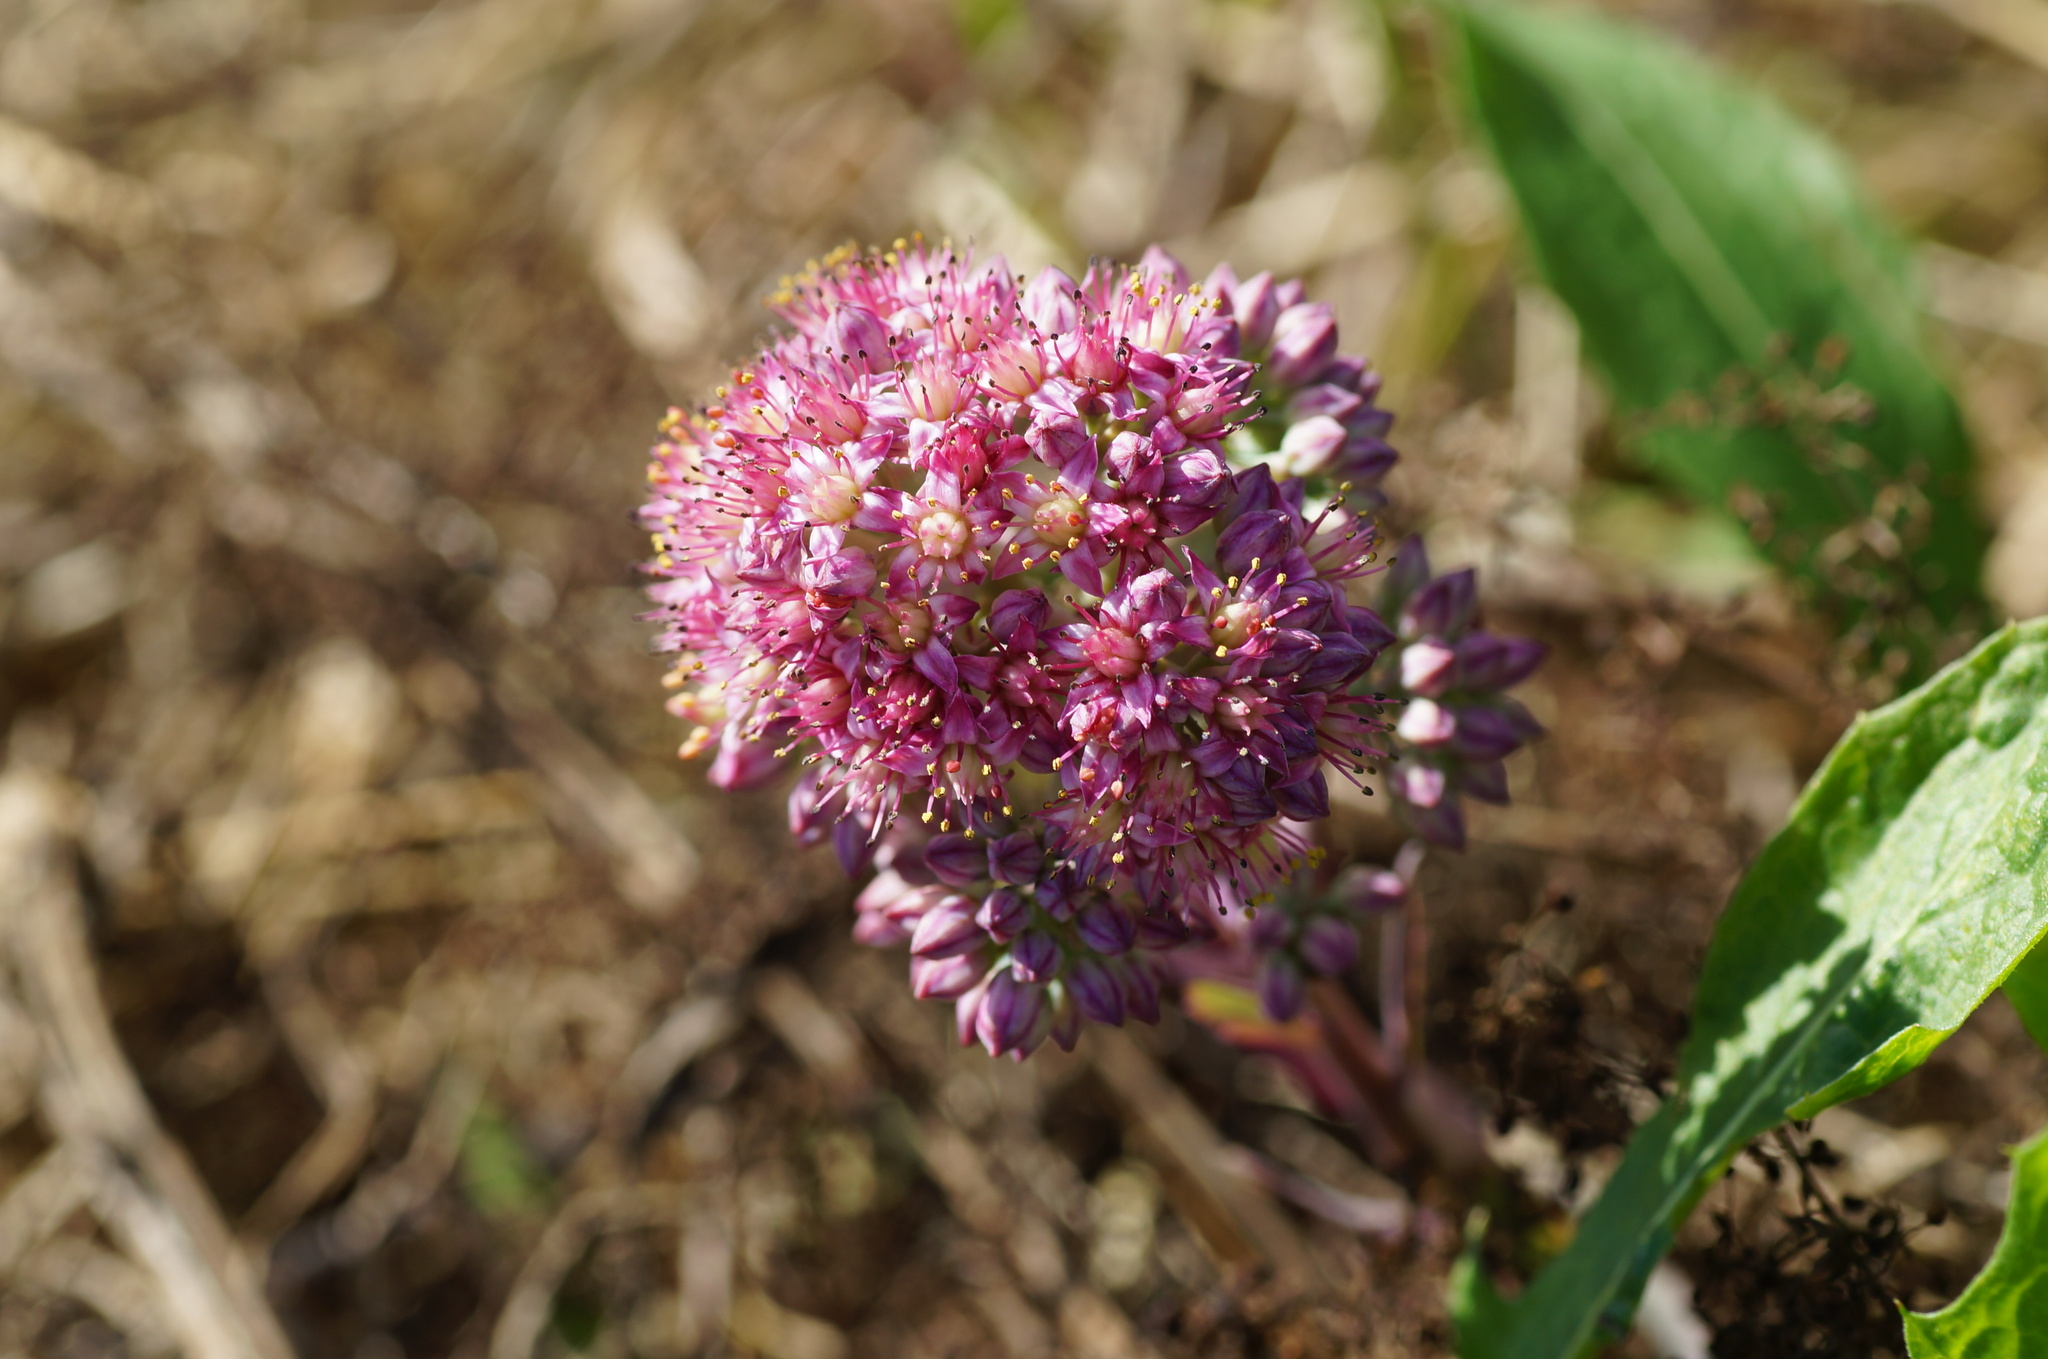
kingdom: Plantae
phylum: Tracheophyta
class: Magnoliopsida
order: Saxifragales
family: Crassulaceae
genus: Hylotelephium
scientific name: Hylotelephium telephium
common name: Live-forever
